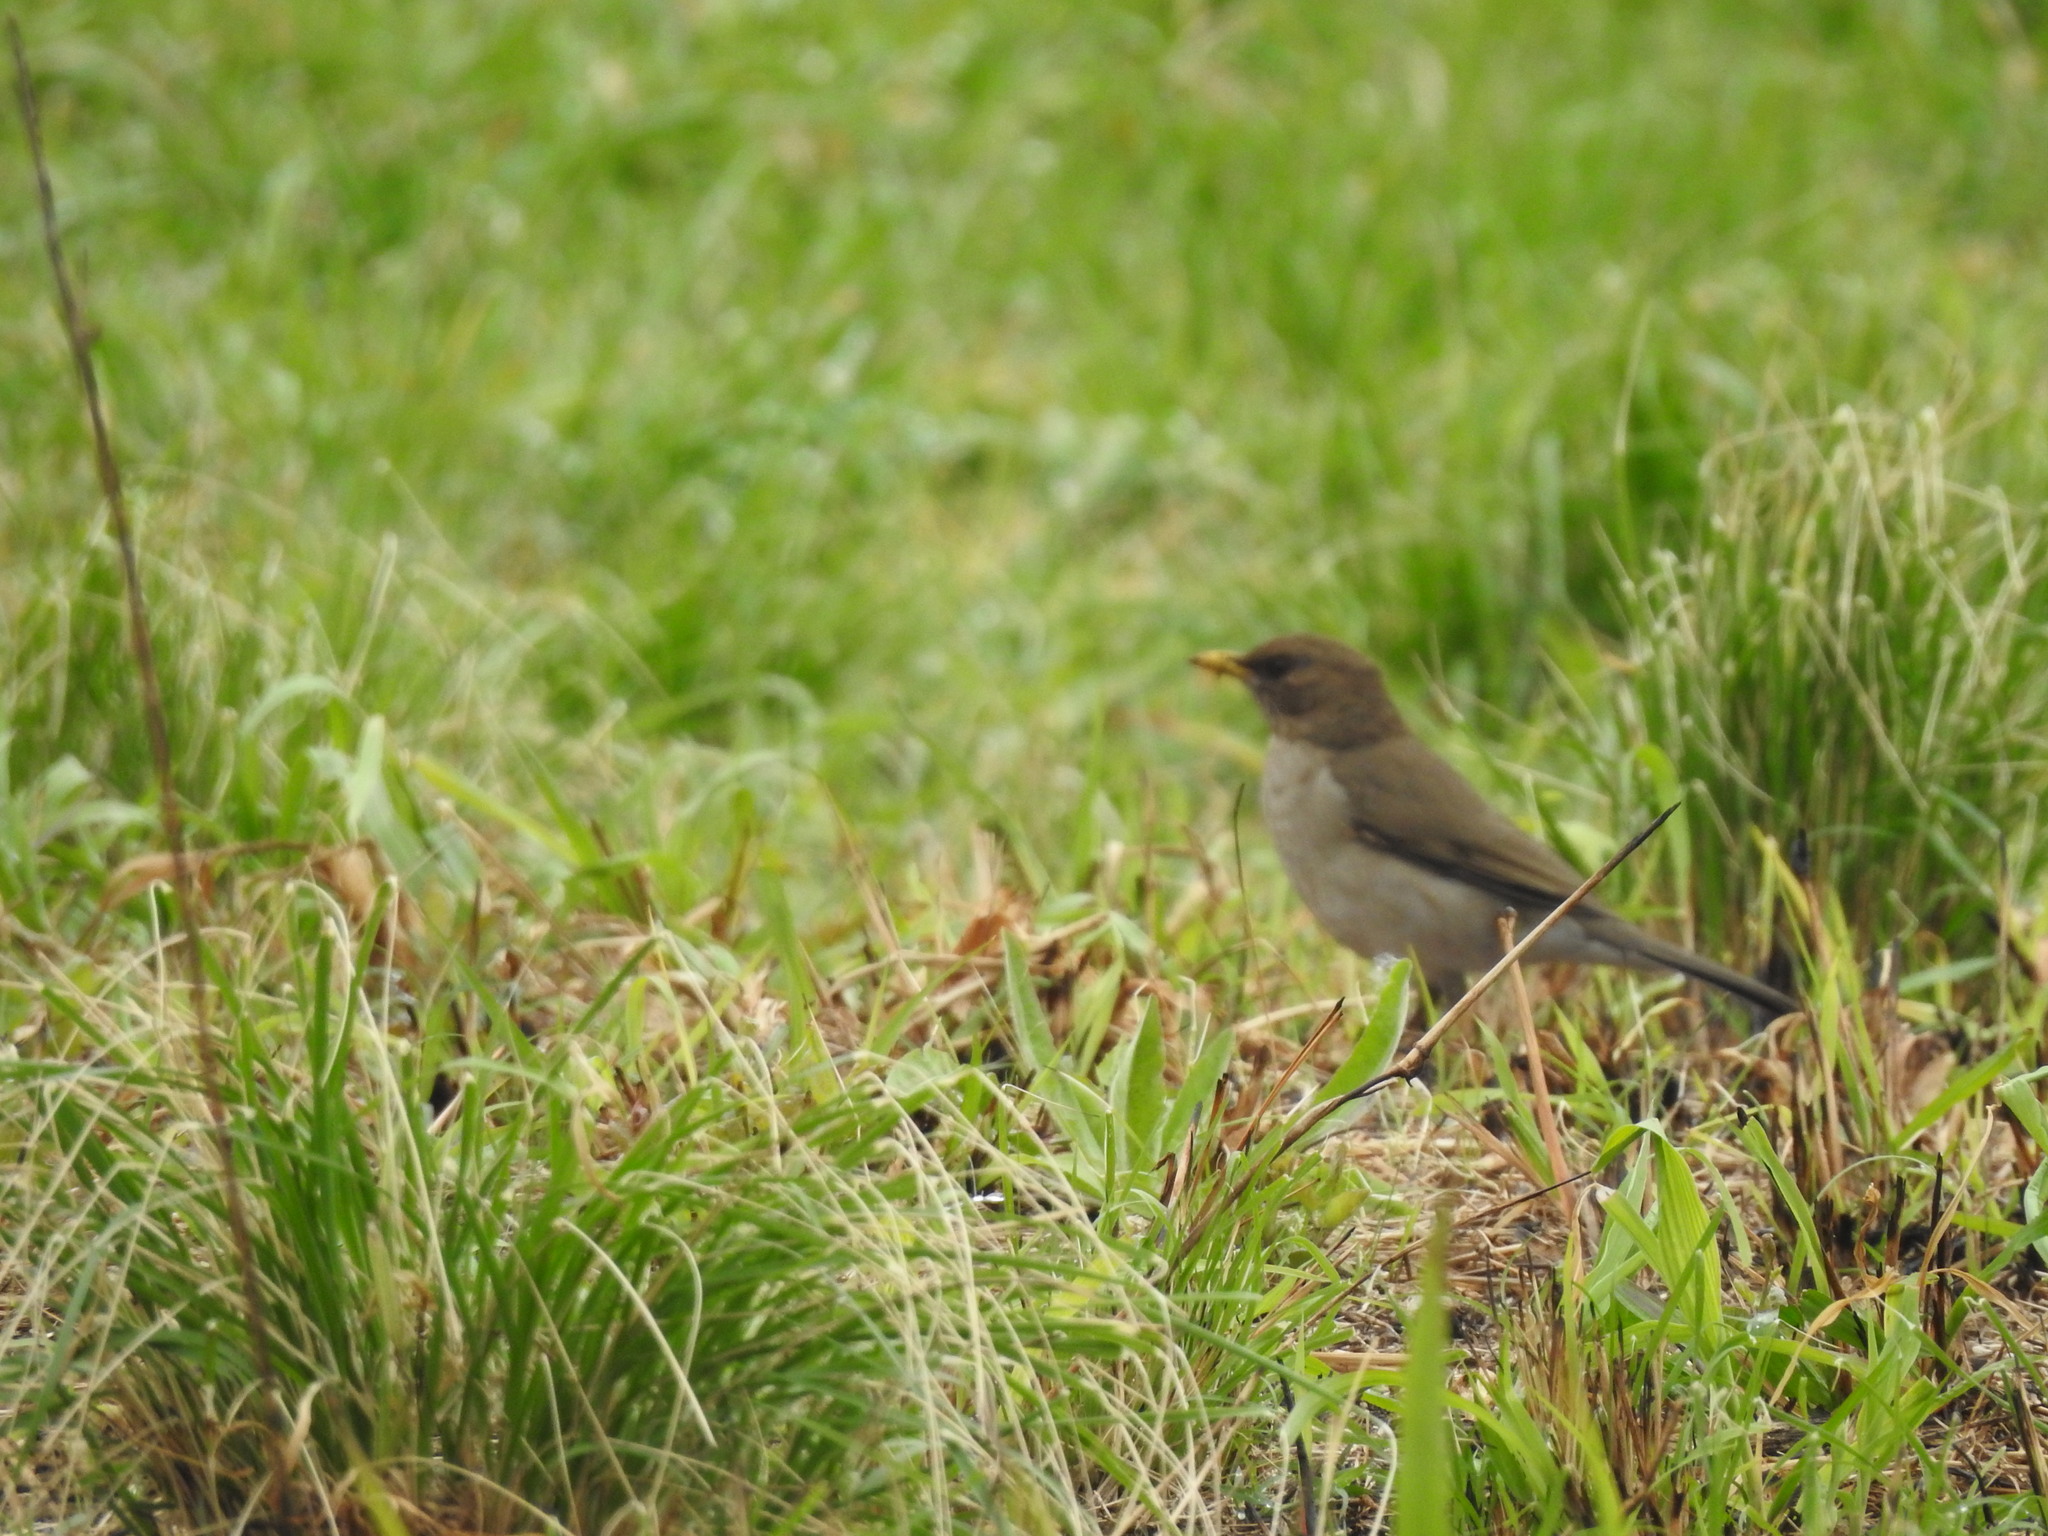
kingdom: Animalia
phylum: Chordata
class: Aves
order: Passeriformes
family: Turdidae
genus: Turdus
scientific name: Turdus amaurochalinus
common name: Creamy-bellied thrush
